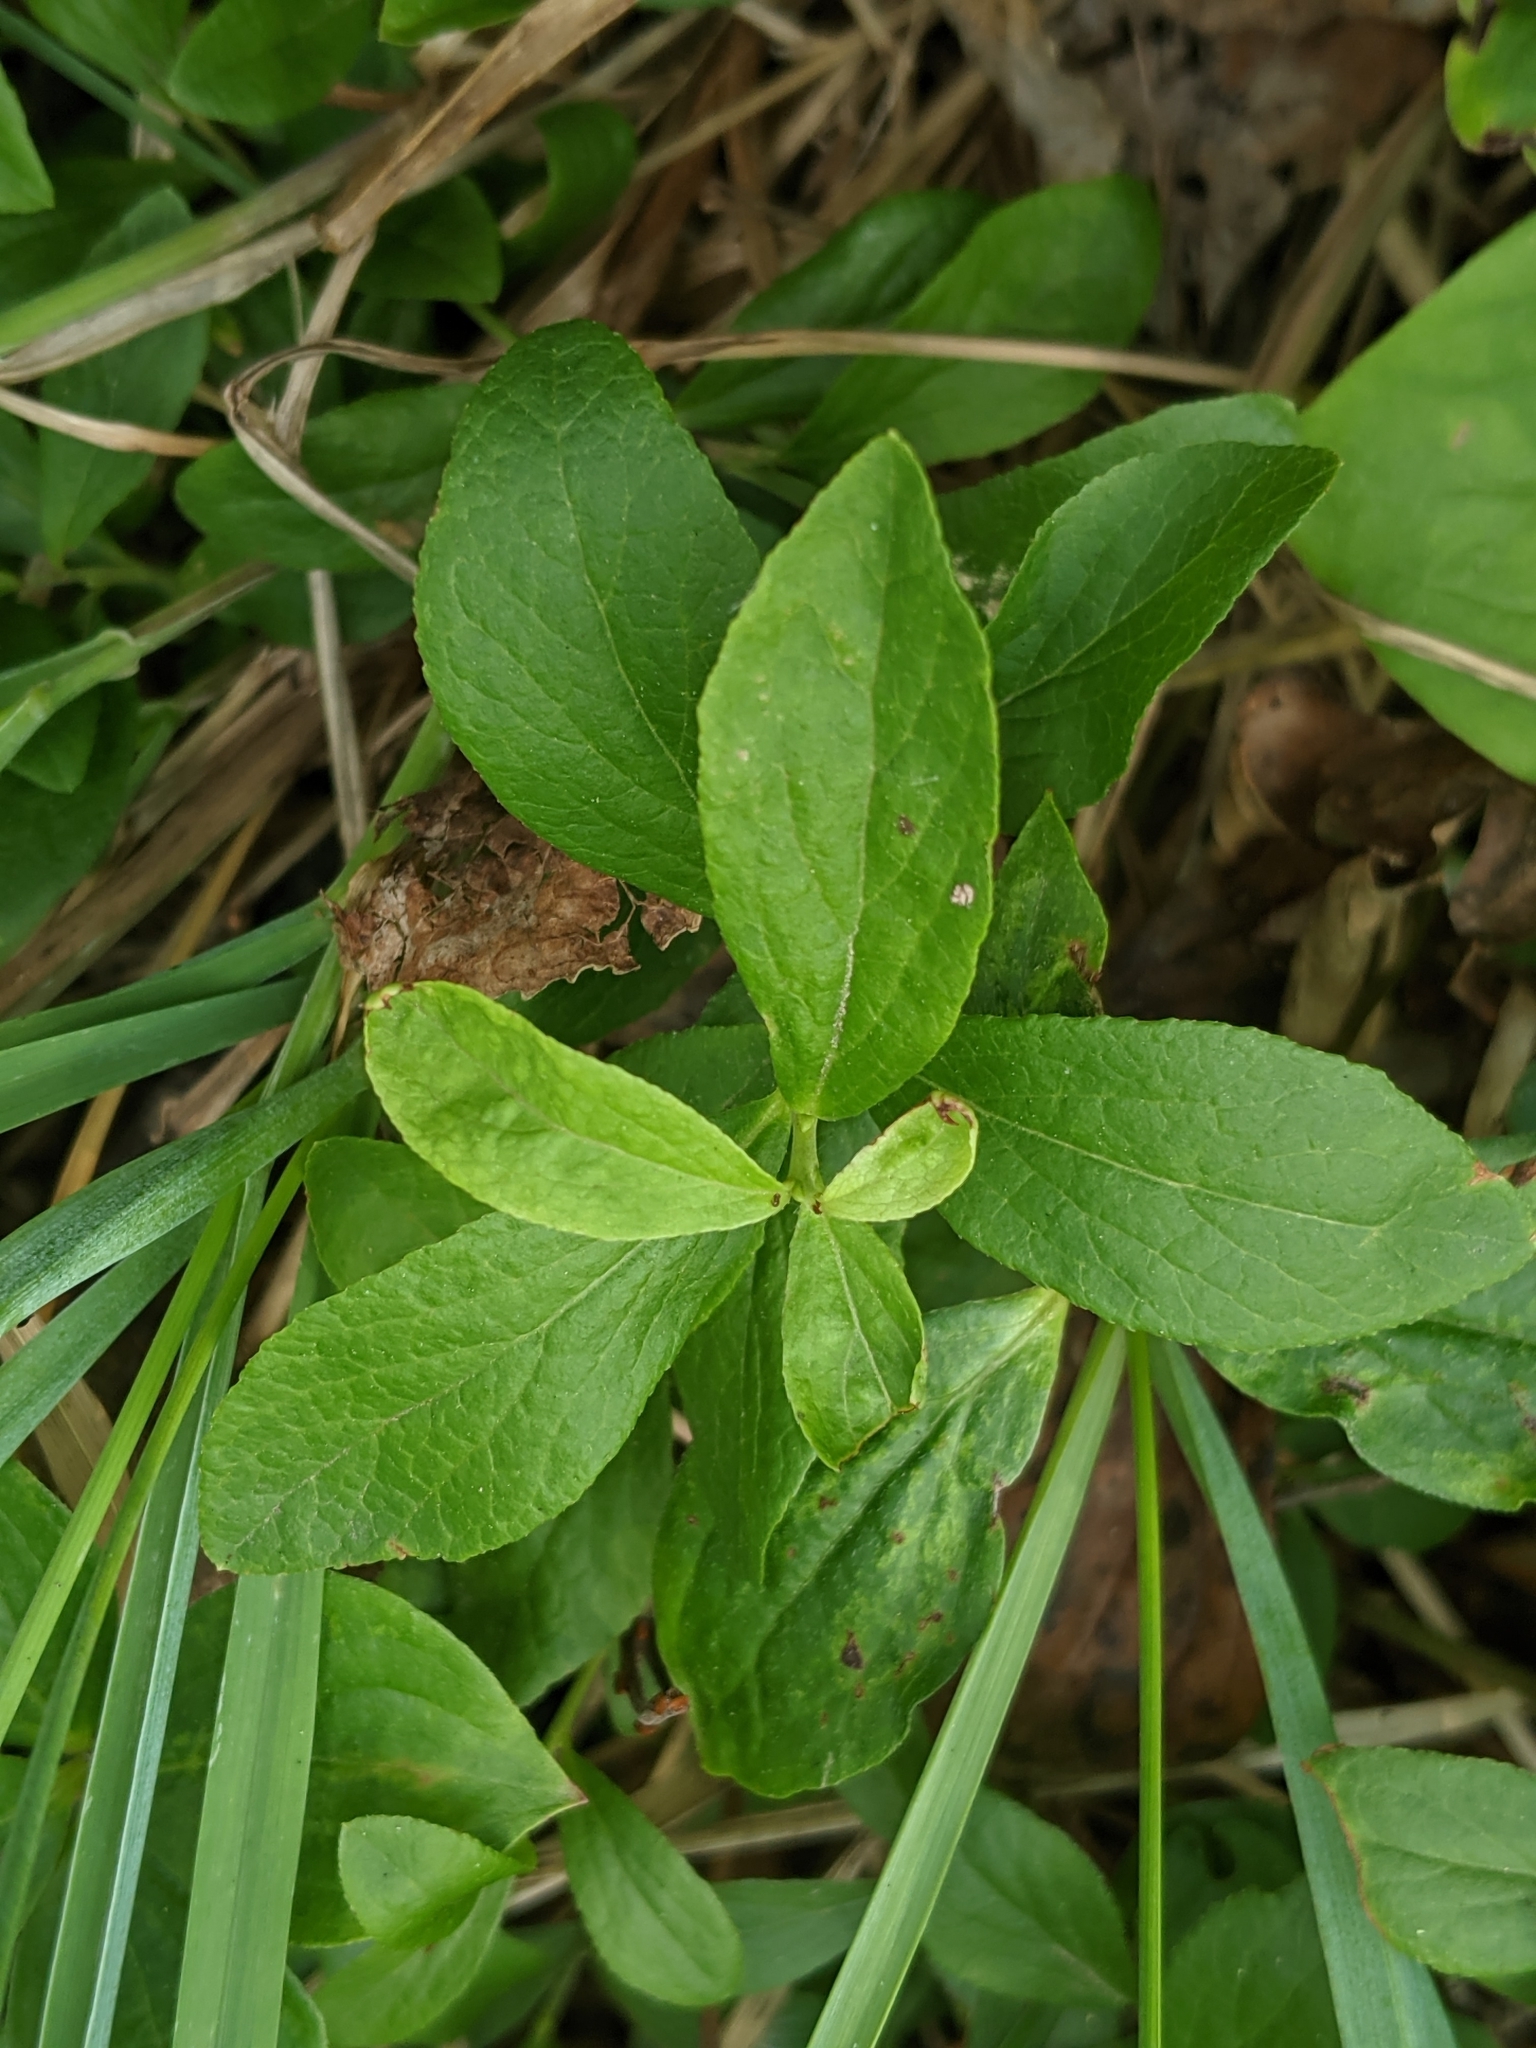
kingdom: Plantae
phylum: Tracheophyta
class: Magnoliopsida
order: Ericales
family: Ericaceae
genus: Vaccinium
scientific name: Vaccinium cespitosum
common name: Dwarf bilberry
